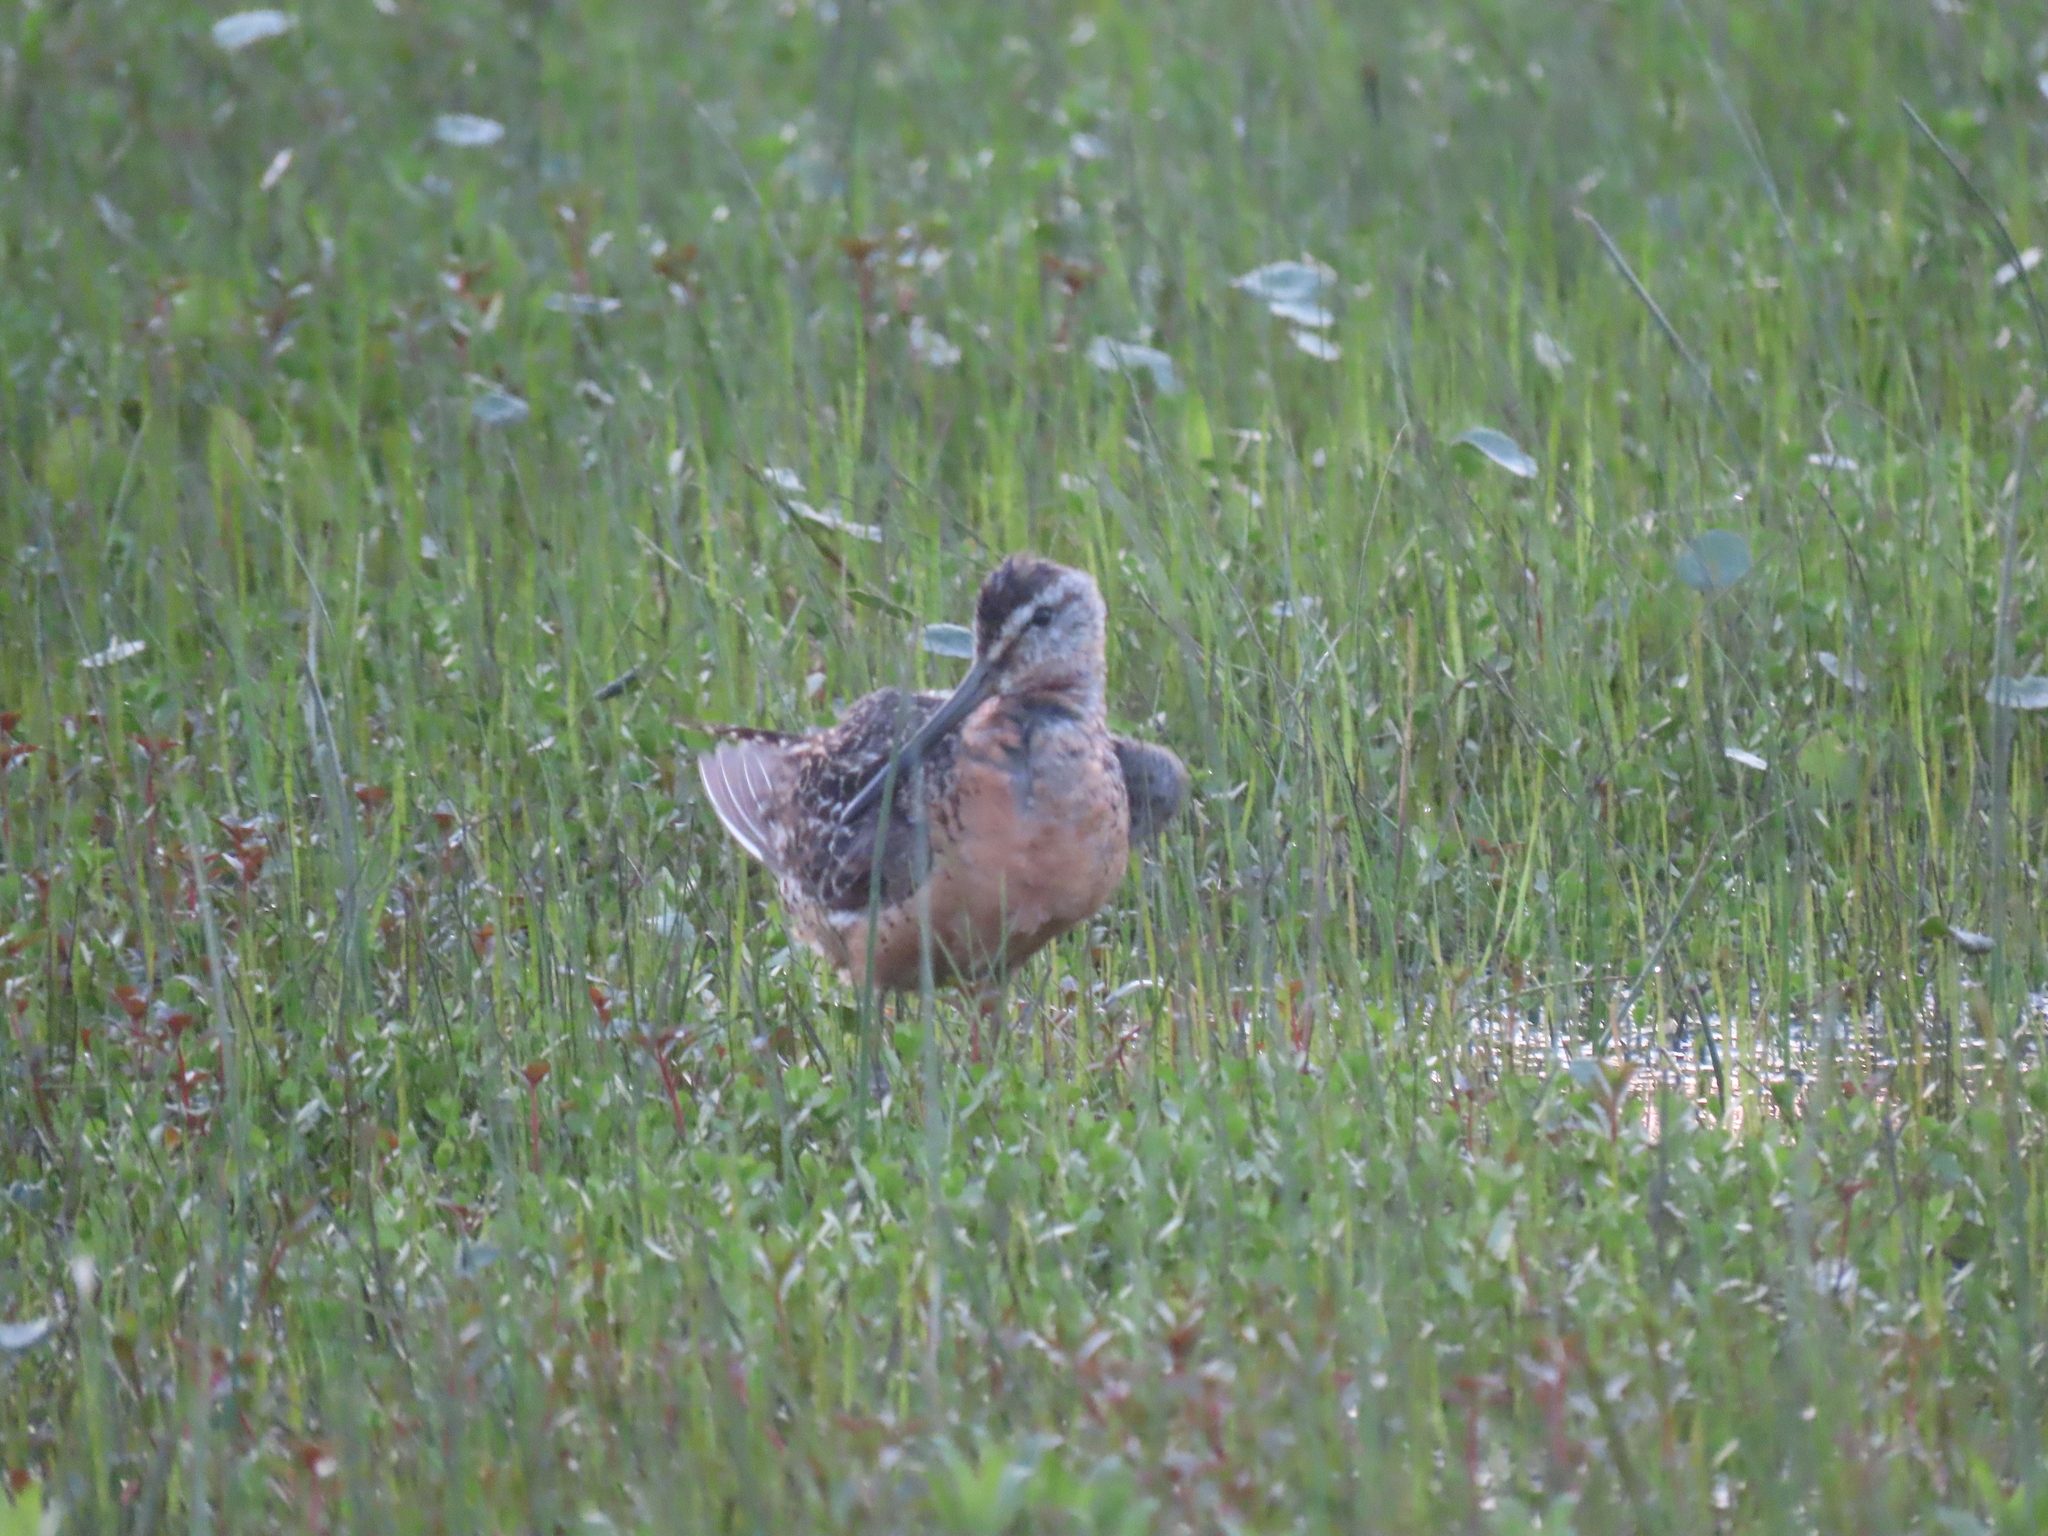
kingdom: Animalia
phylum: Chordata
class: Aves
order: Charadriiformes
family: Scolopacidae
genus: Limnodromus
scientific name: Limnodromus griseus
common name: Short-billed dowitcher
